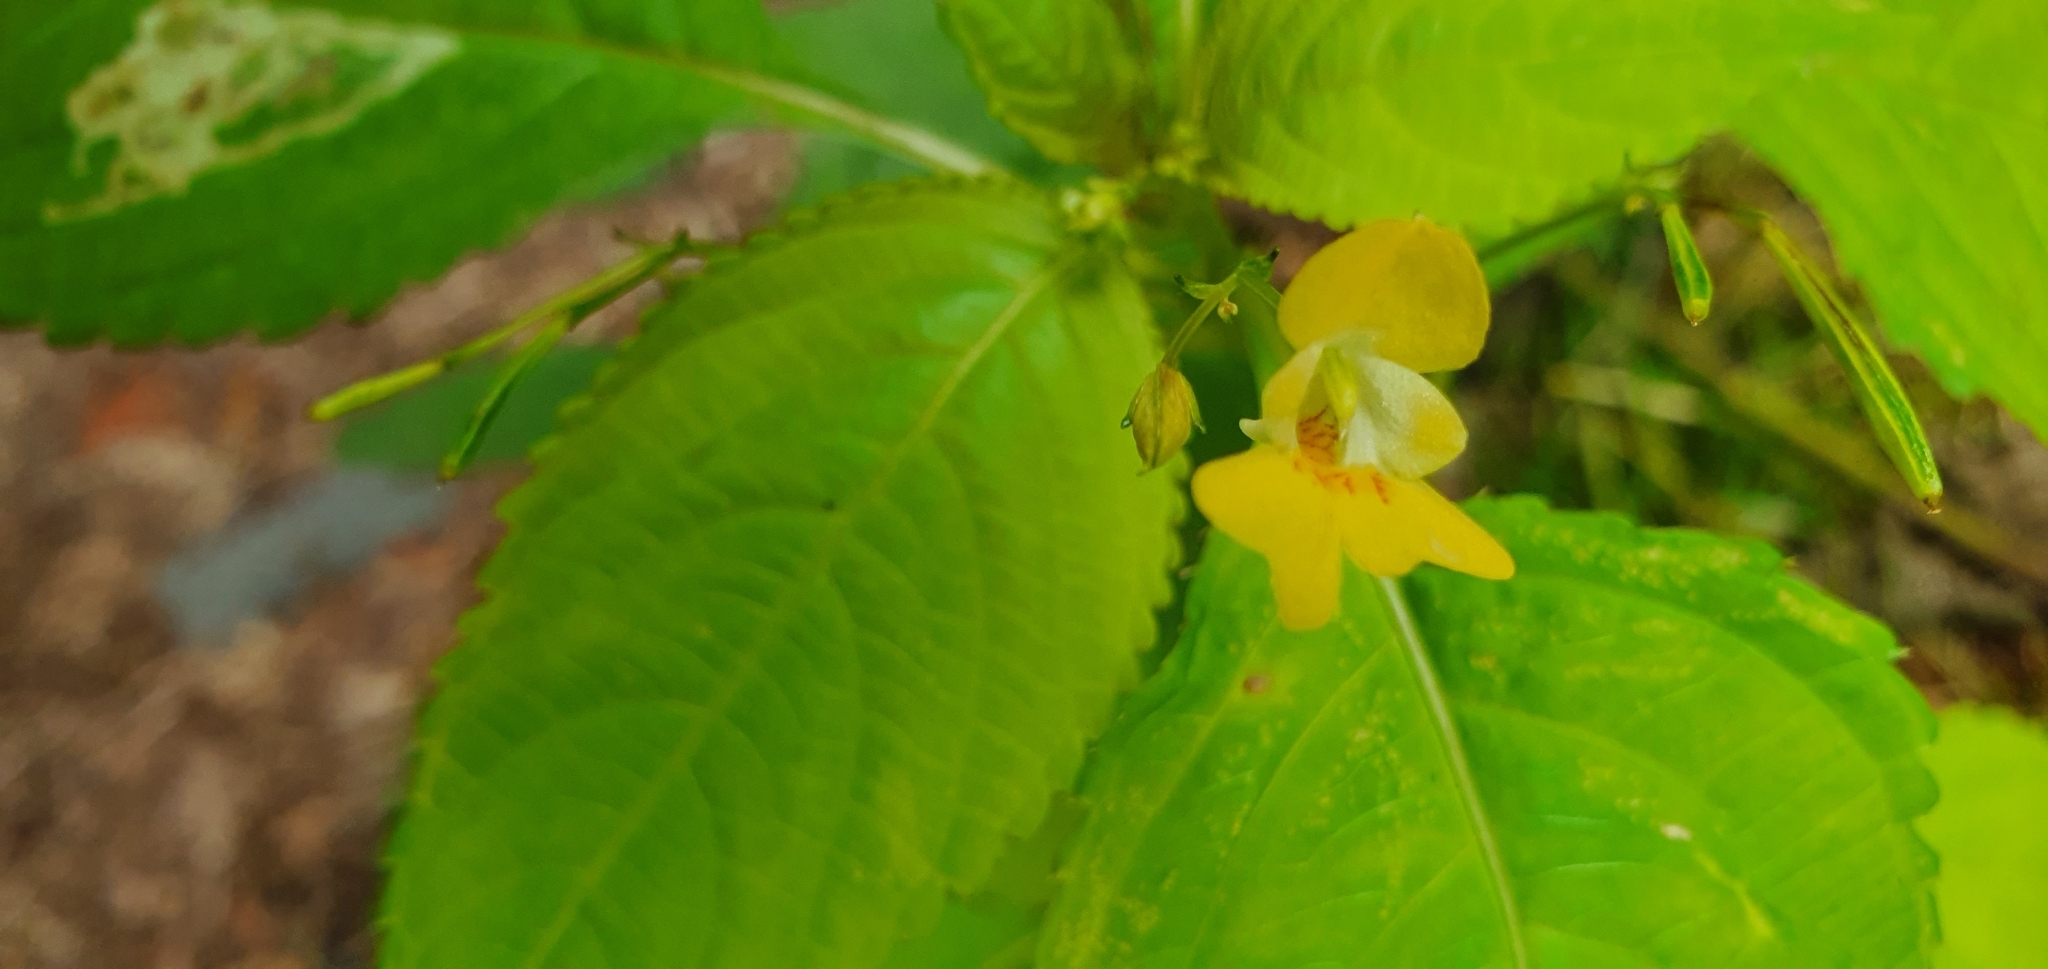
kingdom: Plantae
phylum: Tracheophyta
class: Magnoliopsida
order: Ericales
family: Balsaminaceae
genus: Impatiens
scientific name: Impatiens parviflora
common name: Small balsam
